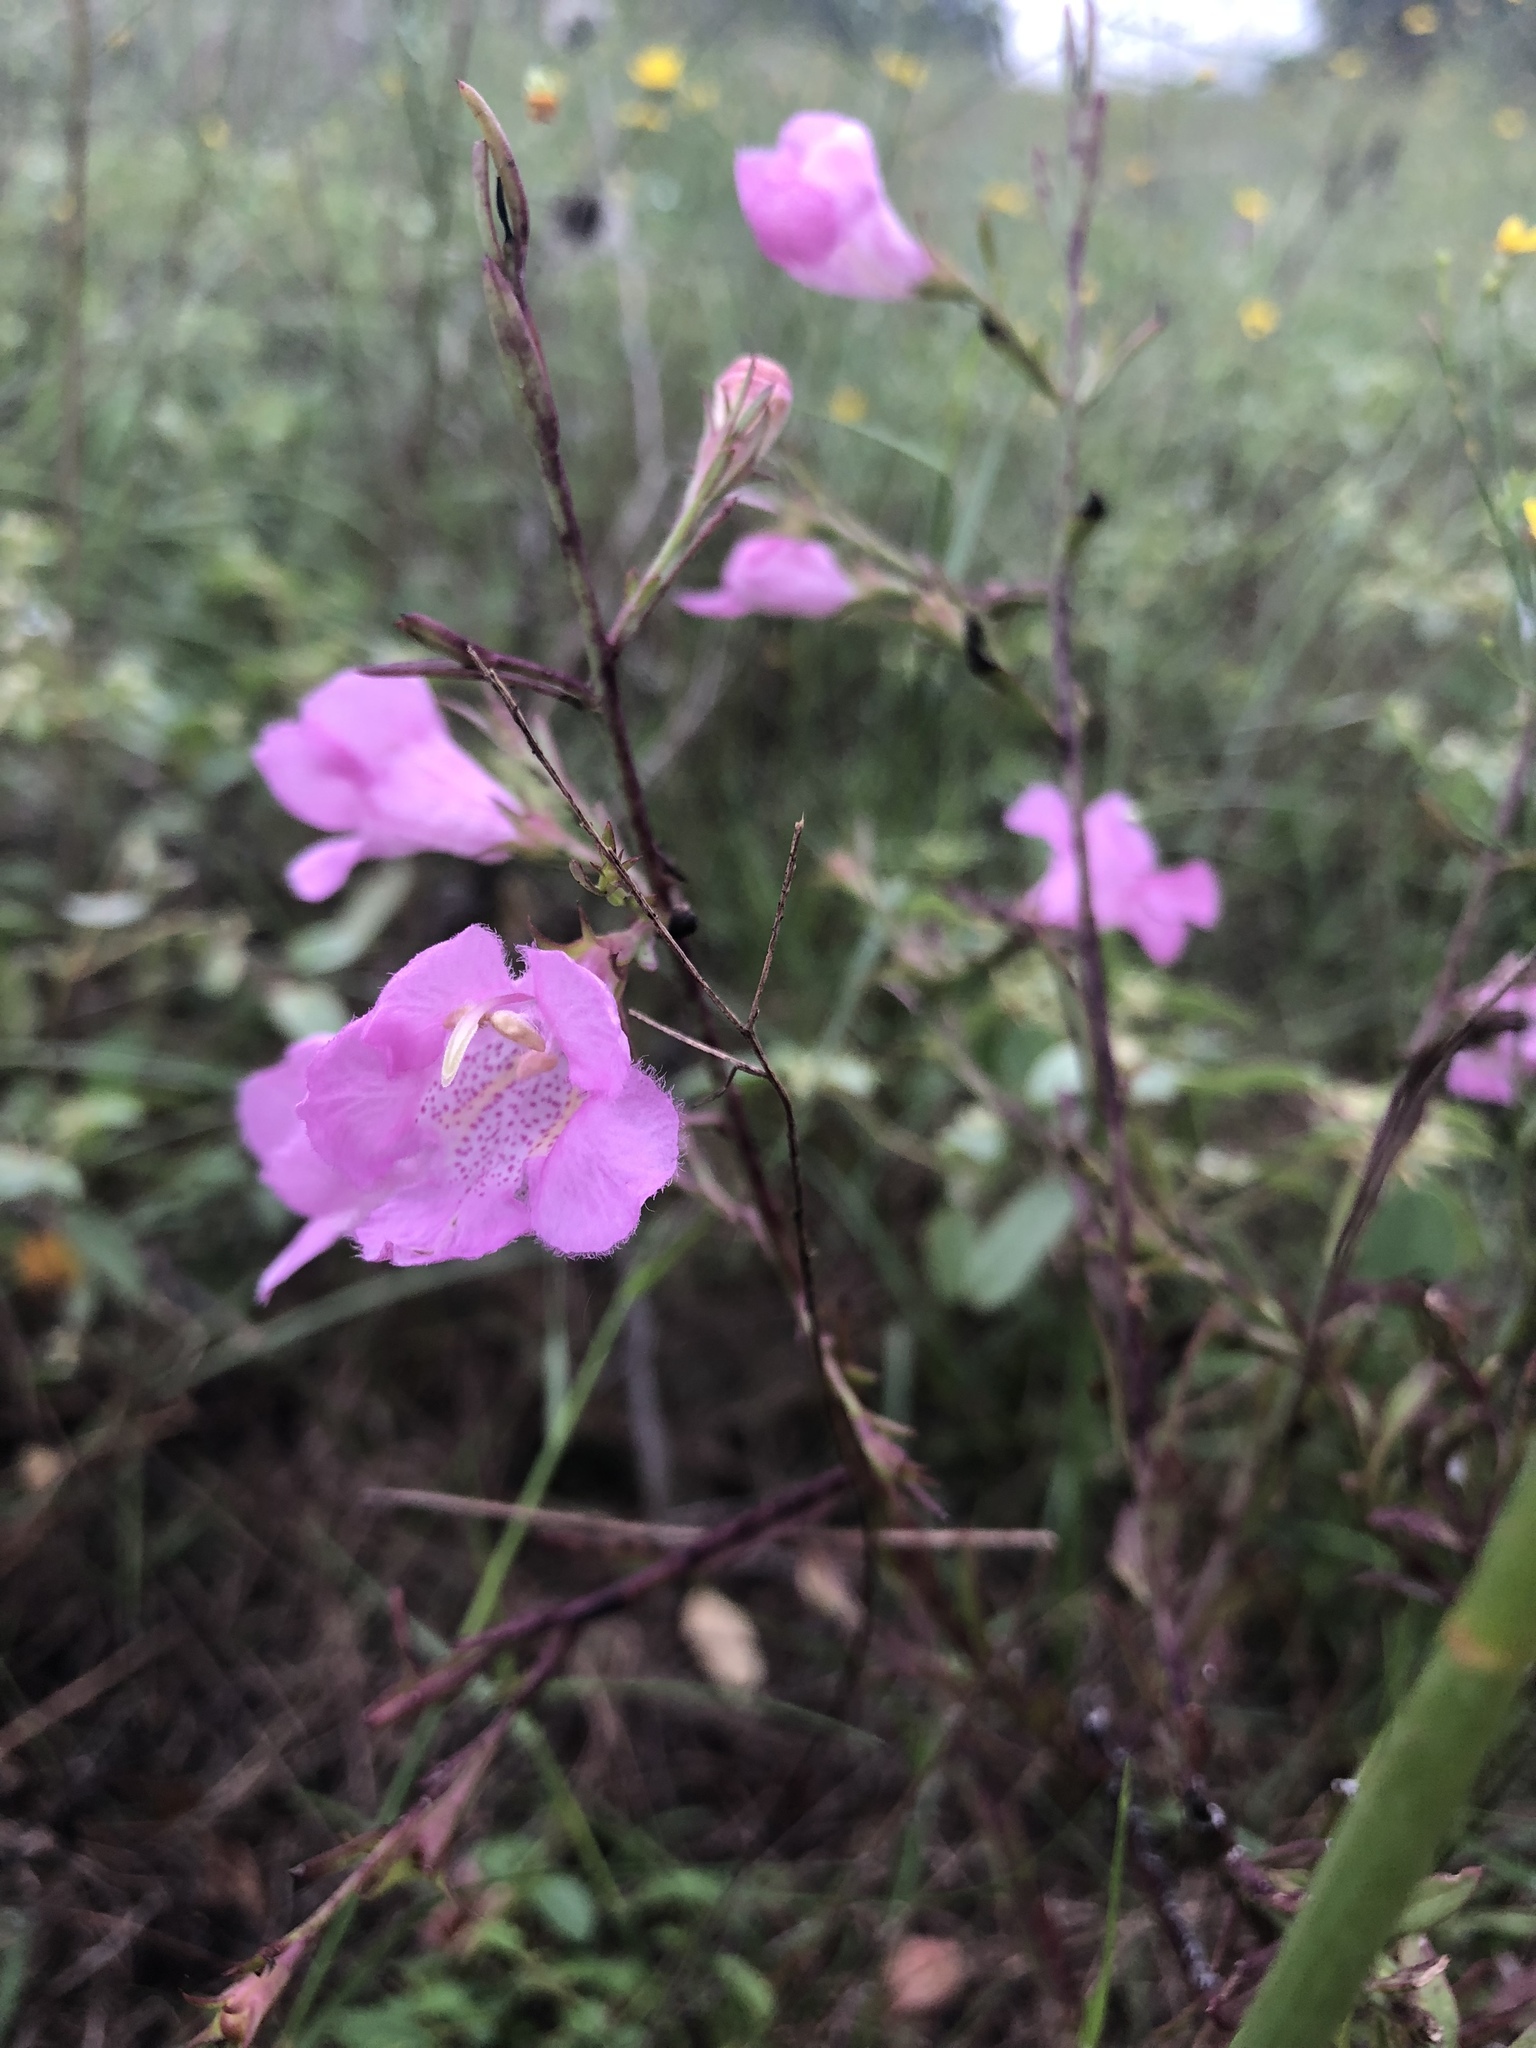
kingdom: Plantae
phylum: Tracheophyta
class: Magnoliopsida
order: Lamiales
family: Orobanchaceae
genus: Agalinis
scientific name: Agalinis heterophylla
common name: Prairie agalinis
